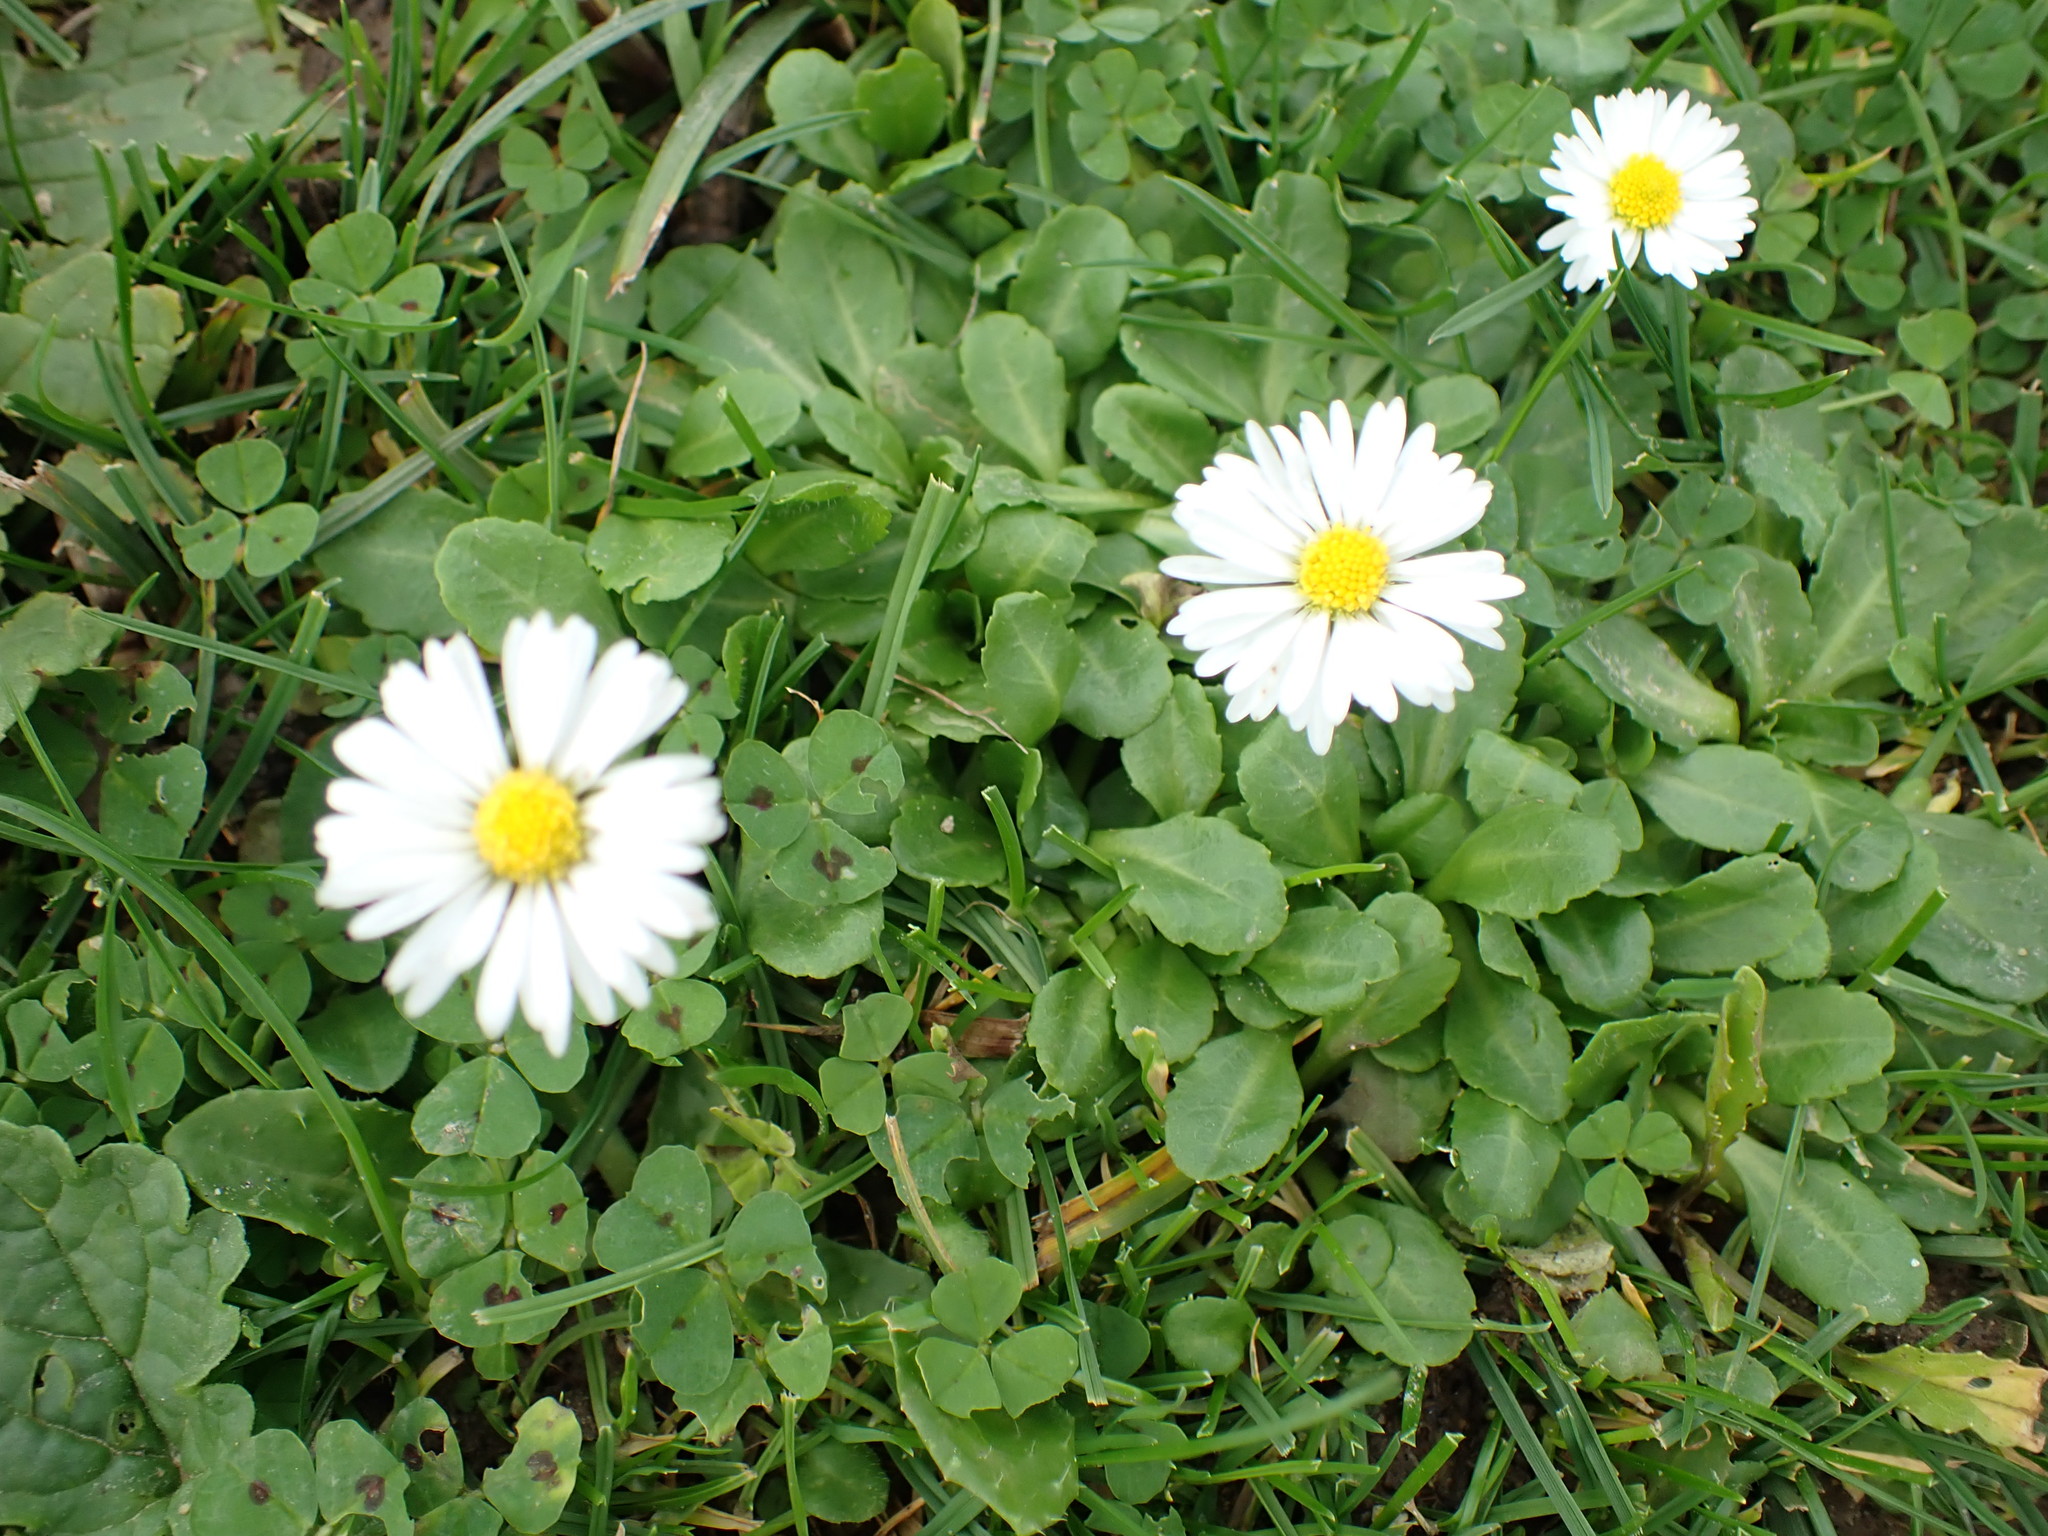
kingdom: Plantae
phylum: Tracheophyta
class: Magnoliopsida
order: Asterales
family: Asteraceae
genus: Bellis
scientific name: Bellis perennis
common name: Lawndaisy
